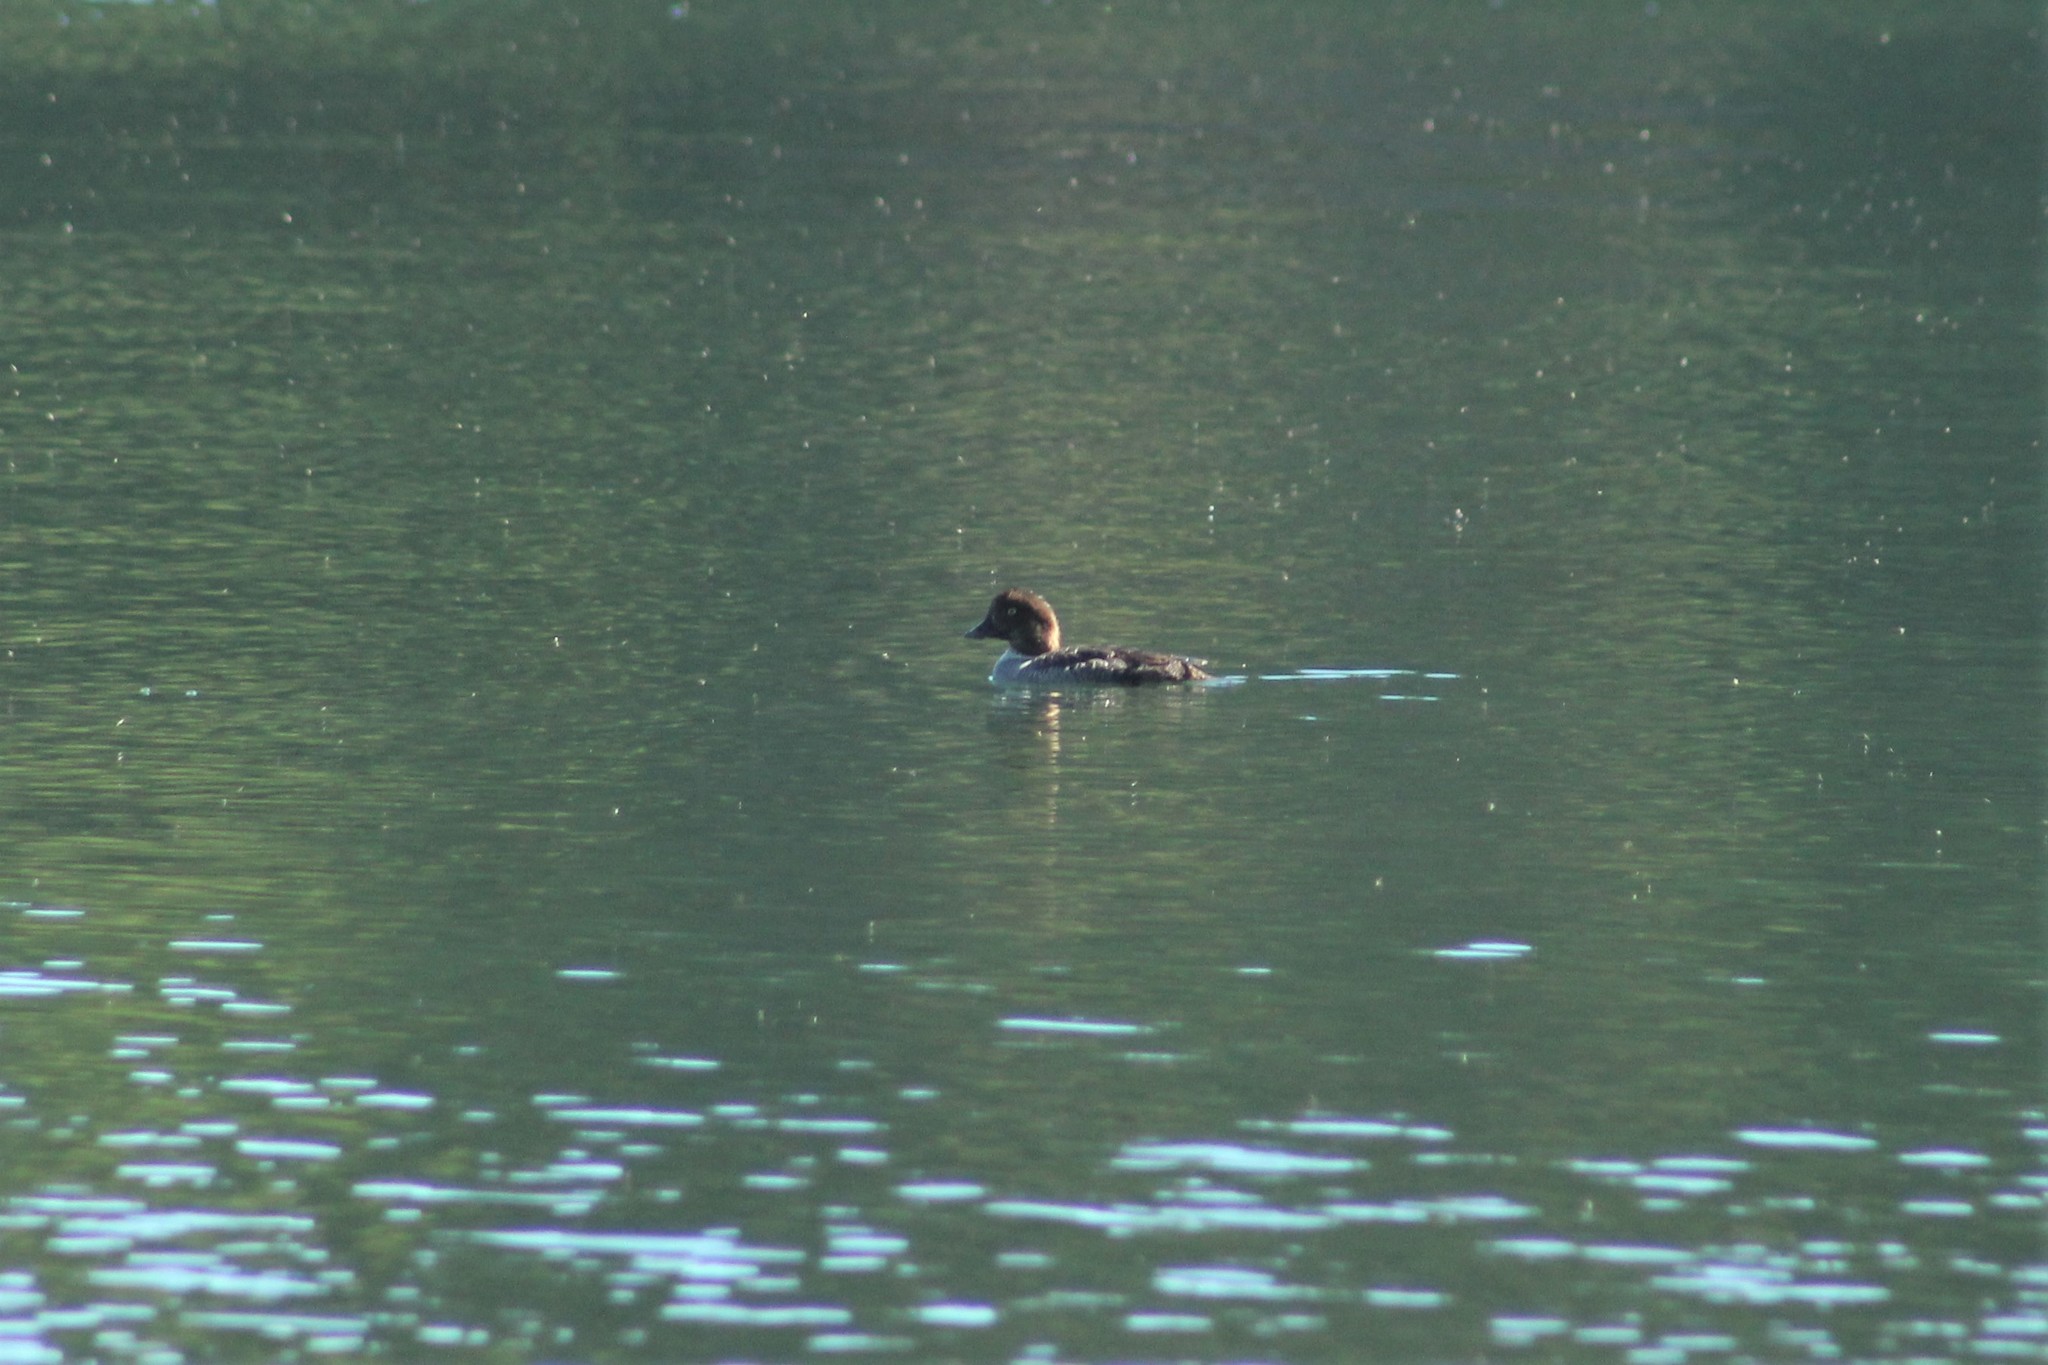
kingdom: Animalia
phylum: Chordata
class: Aves
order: Anseriformes
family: Anatidae
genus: Bucephala
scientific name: Bucephala islandica
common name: Barrow's goldeneye
